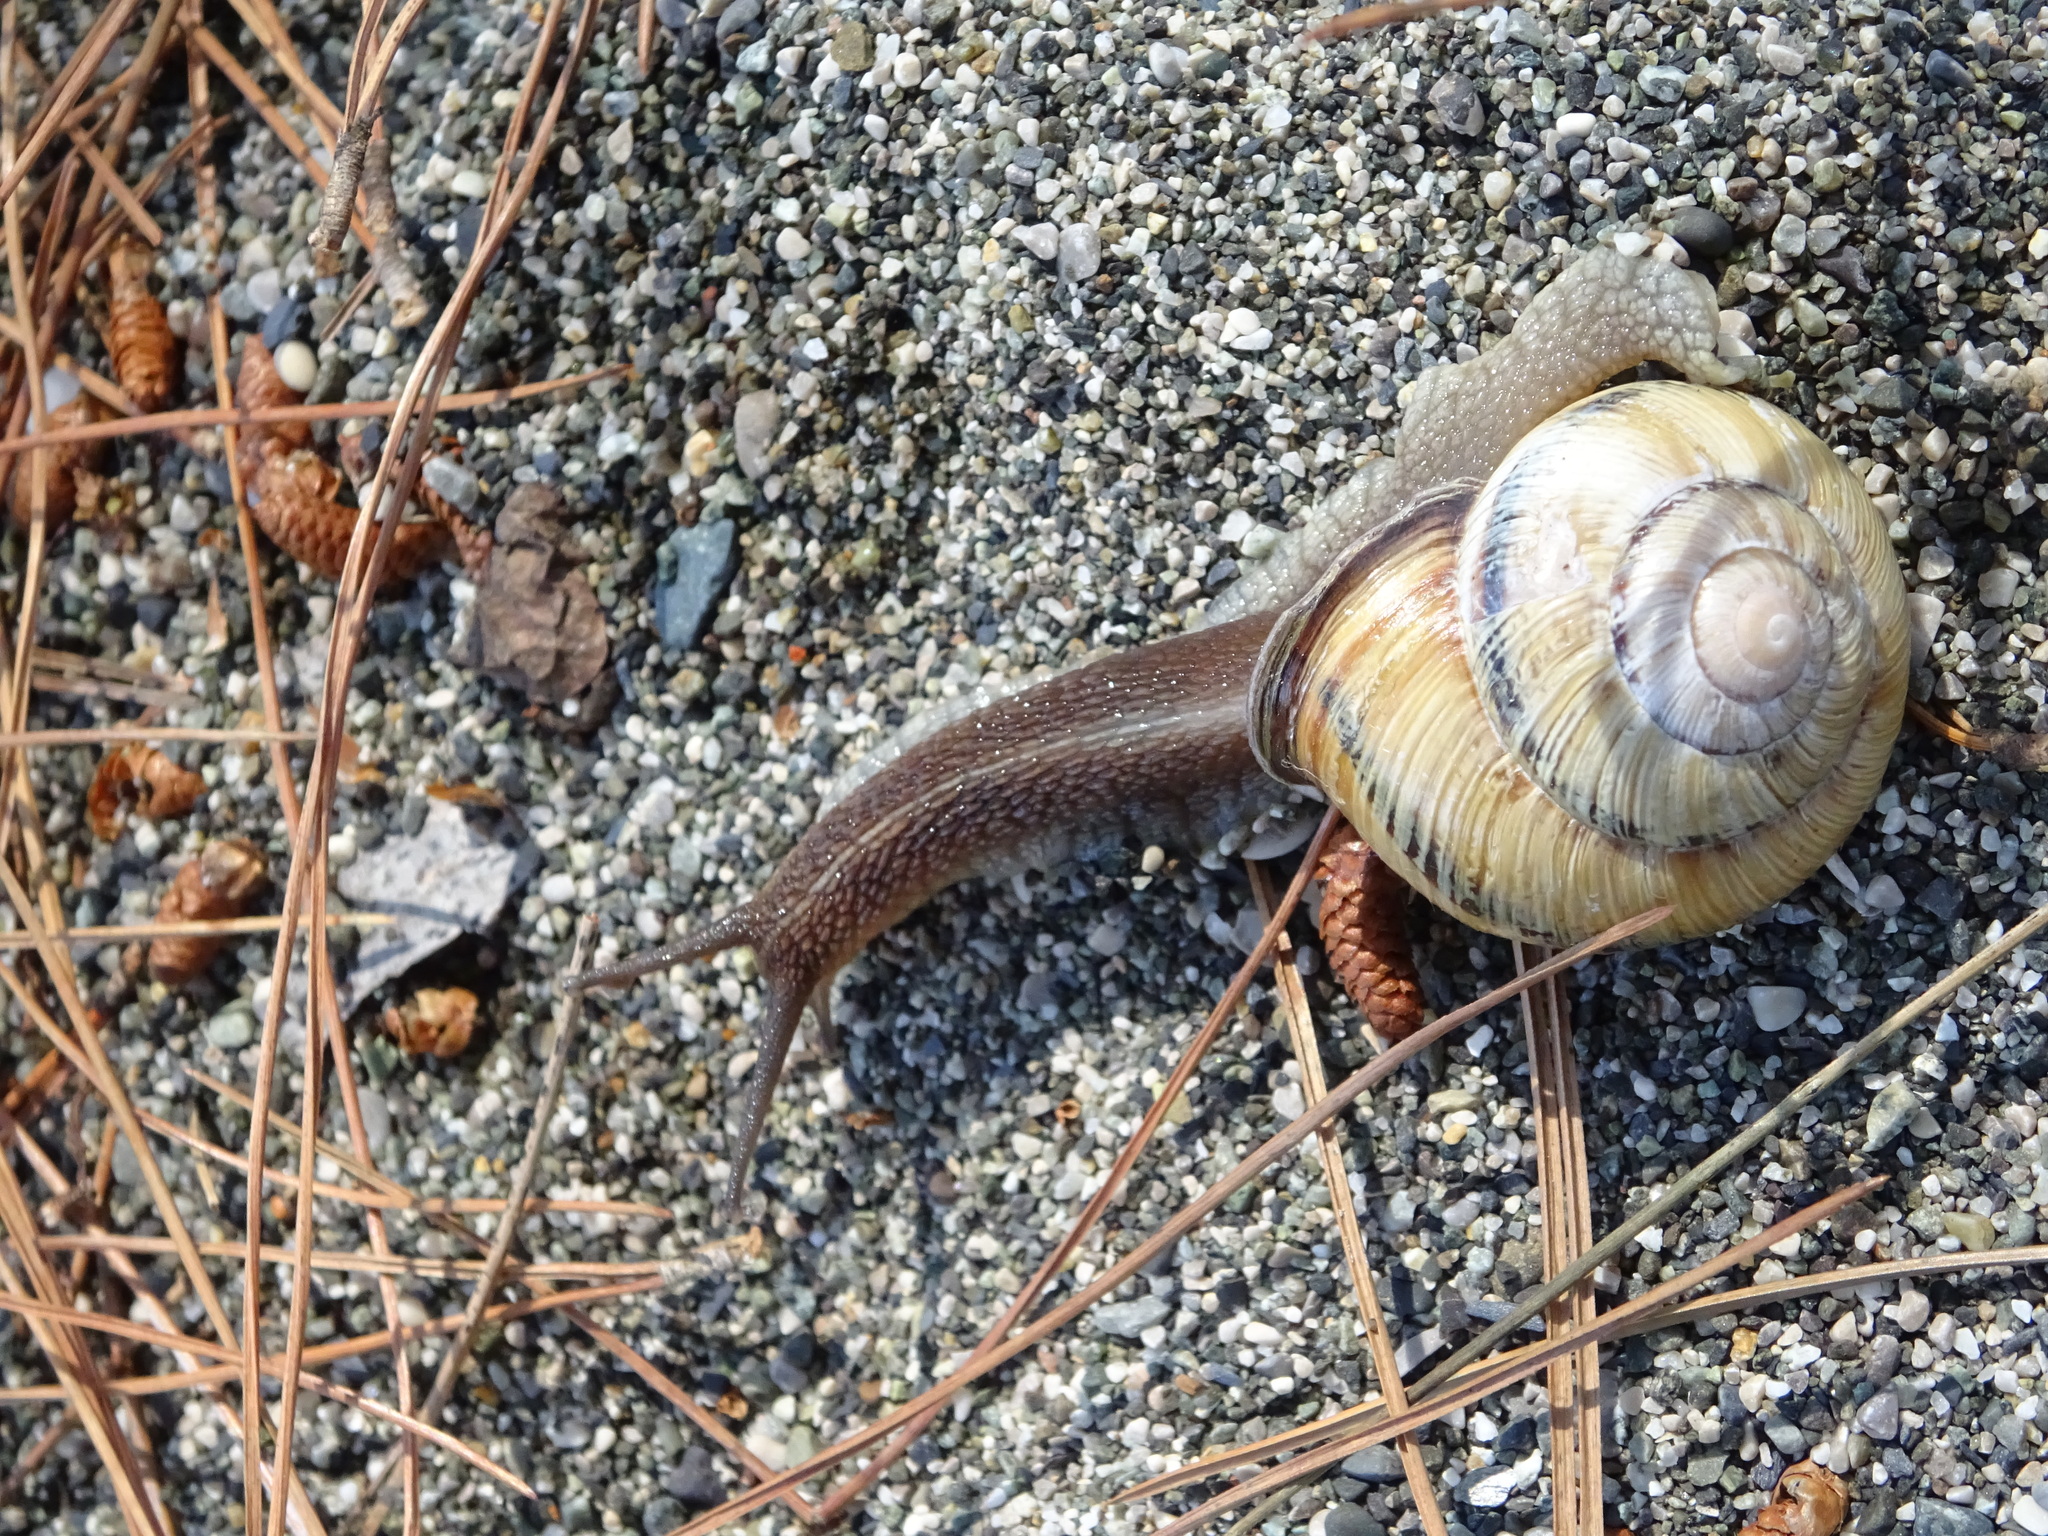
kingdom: Animalia
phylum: Mollusca
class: Gastropoda
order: Stylommatophora
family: Helicidae
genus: Caucasotachea
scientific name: Caucasotachea atrolabiata
